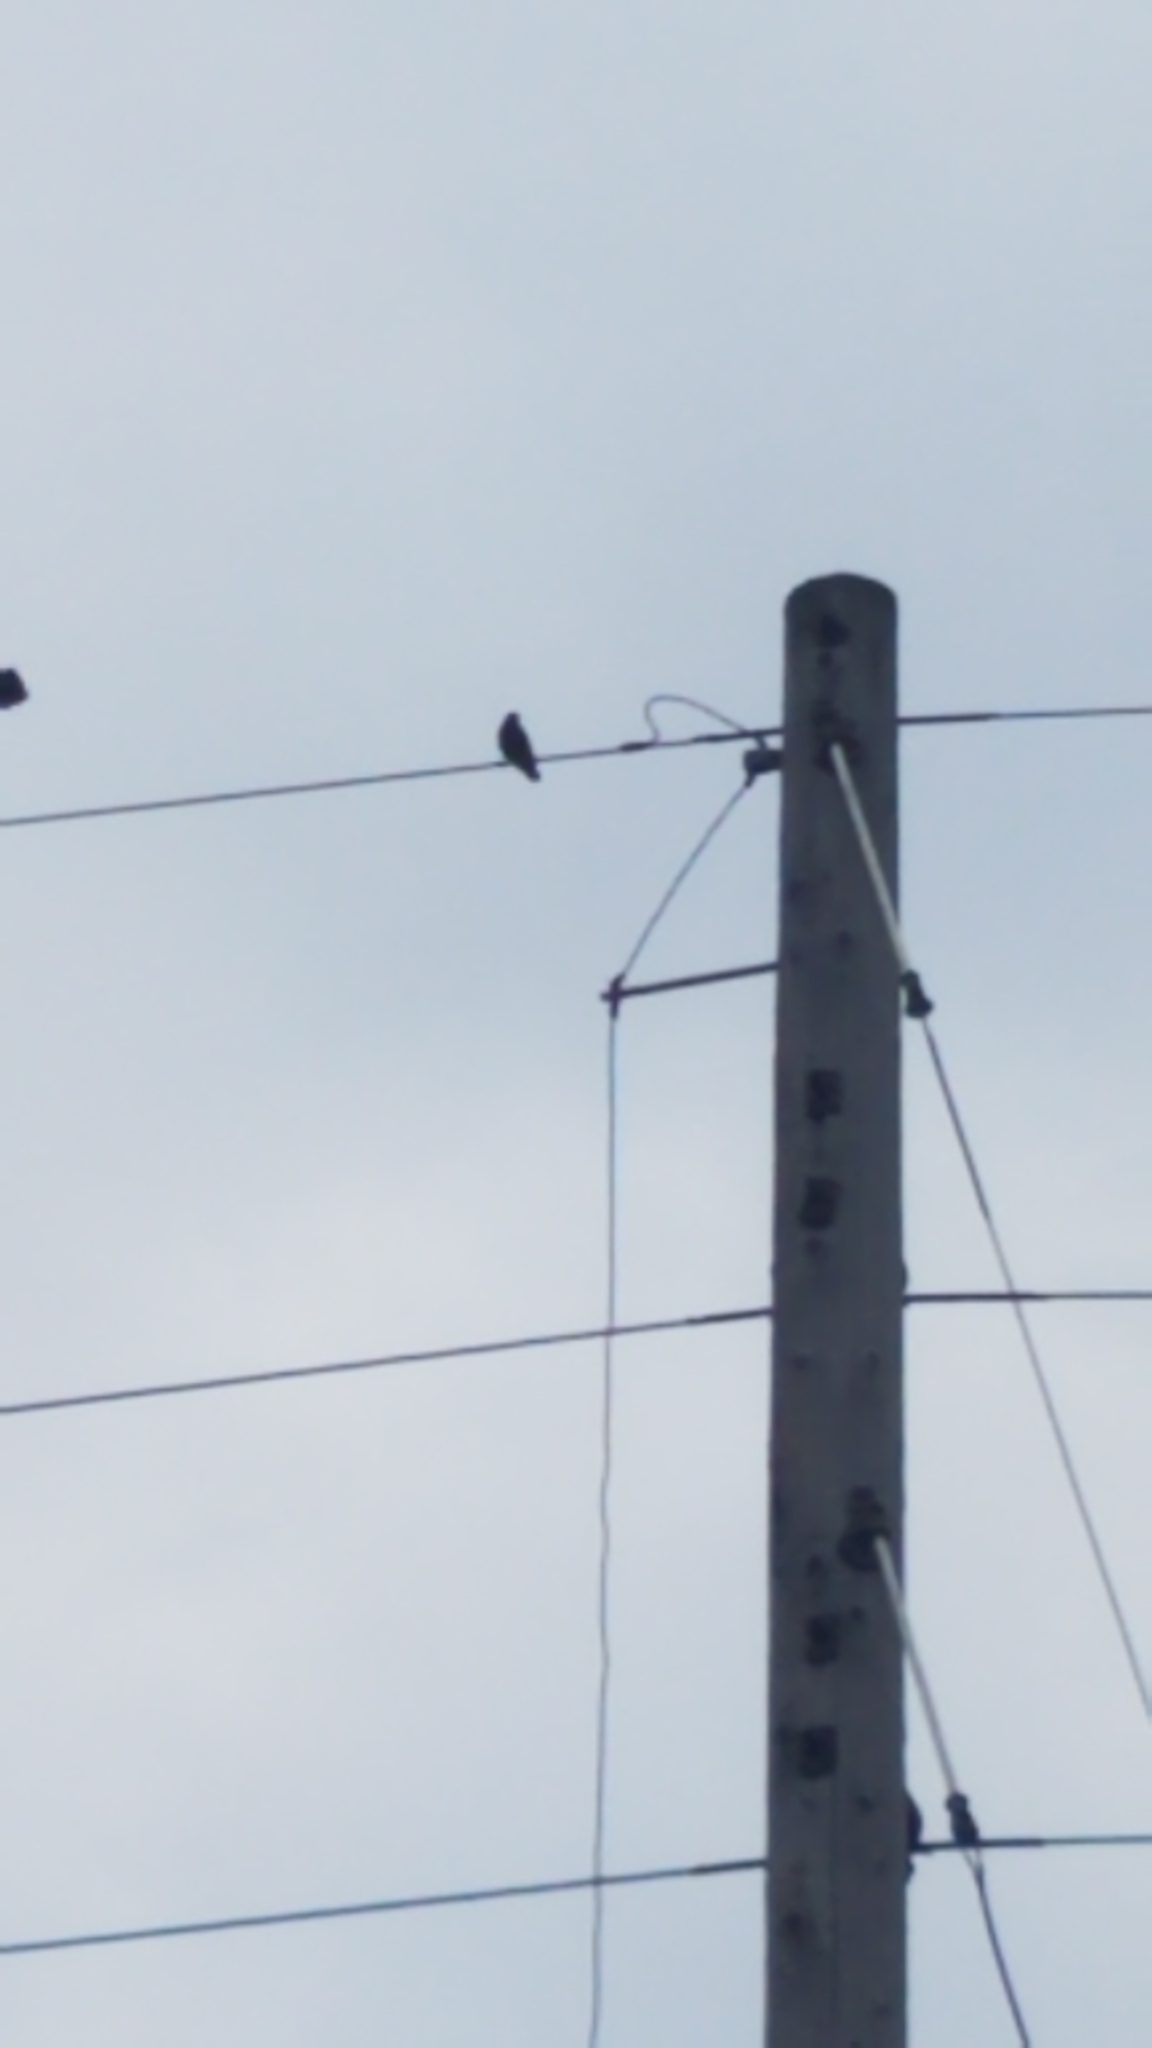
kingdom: Animalia
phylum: Chordata
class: Aves
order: Passeriformes
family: Sturnidae
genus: Sturnus
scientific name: Sturnus vulgaris
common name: Common starling
